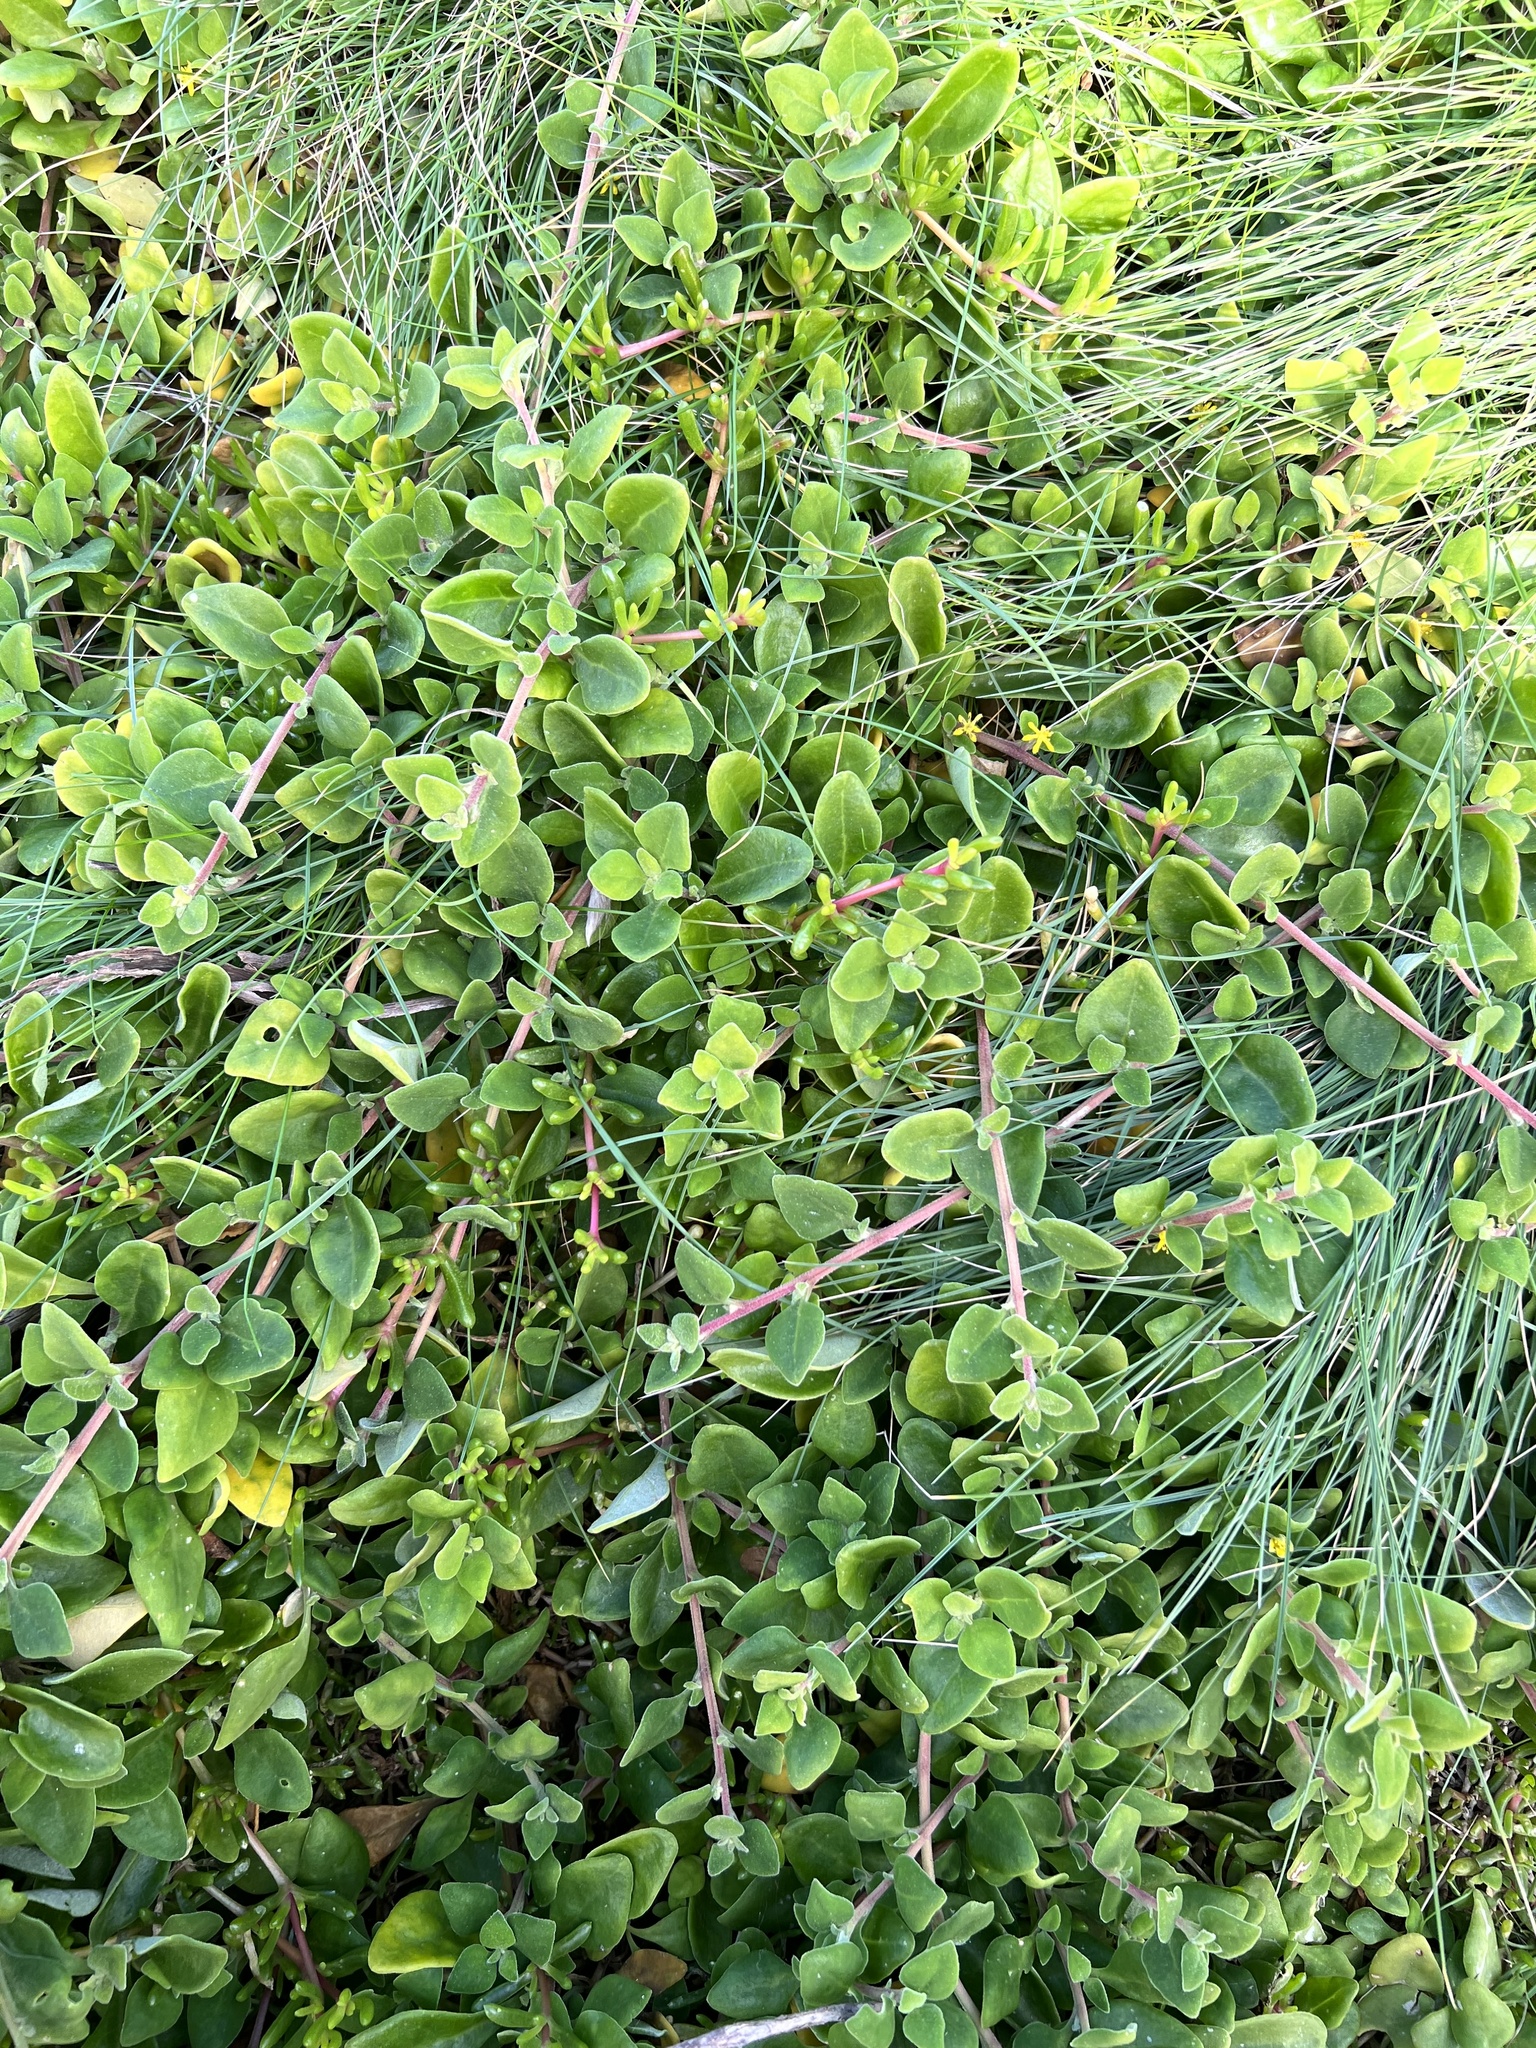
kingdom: Plantae
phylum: Tracheophyta
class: Magnoliopsida
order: Caryophyllales
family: Aizoaceae
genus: Tetragonia
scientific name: Tetragonia implexicoma
